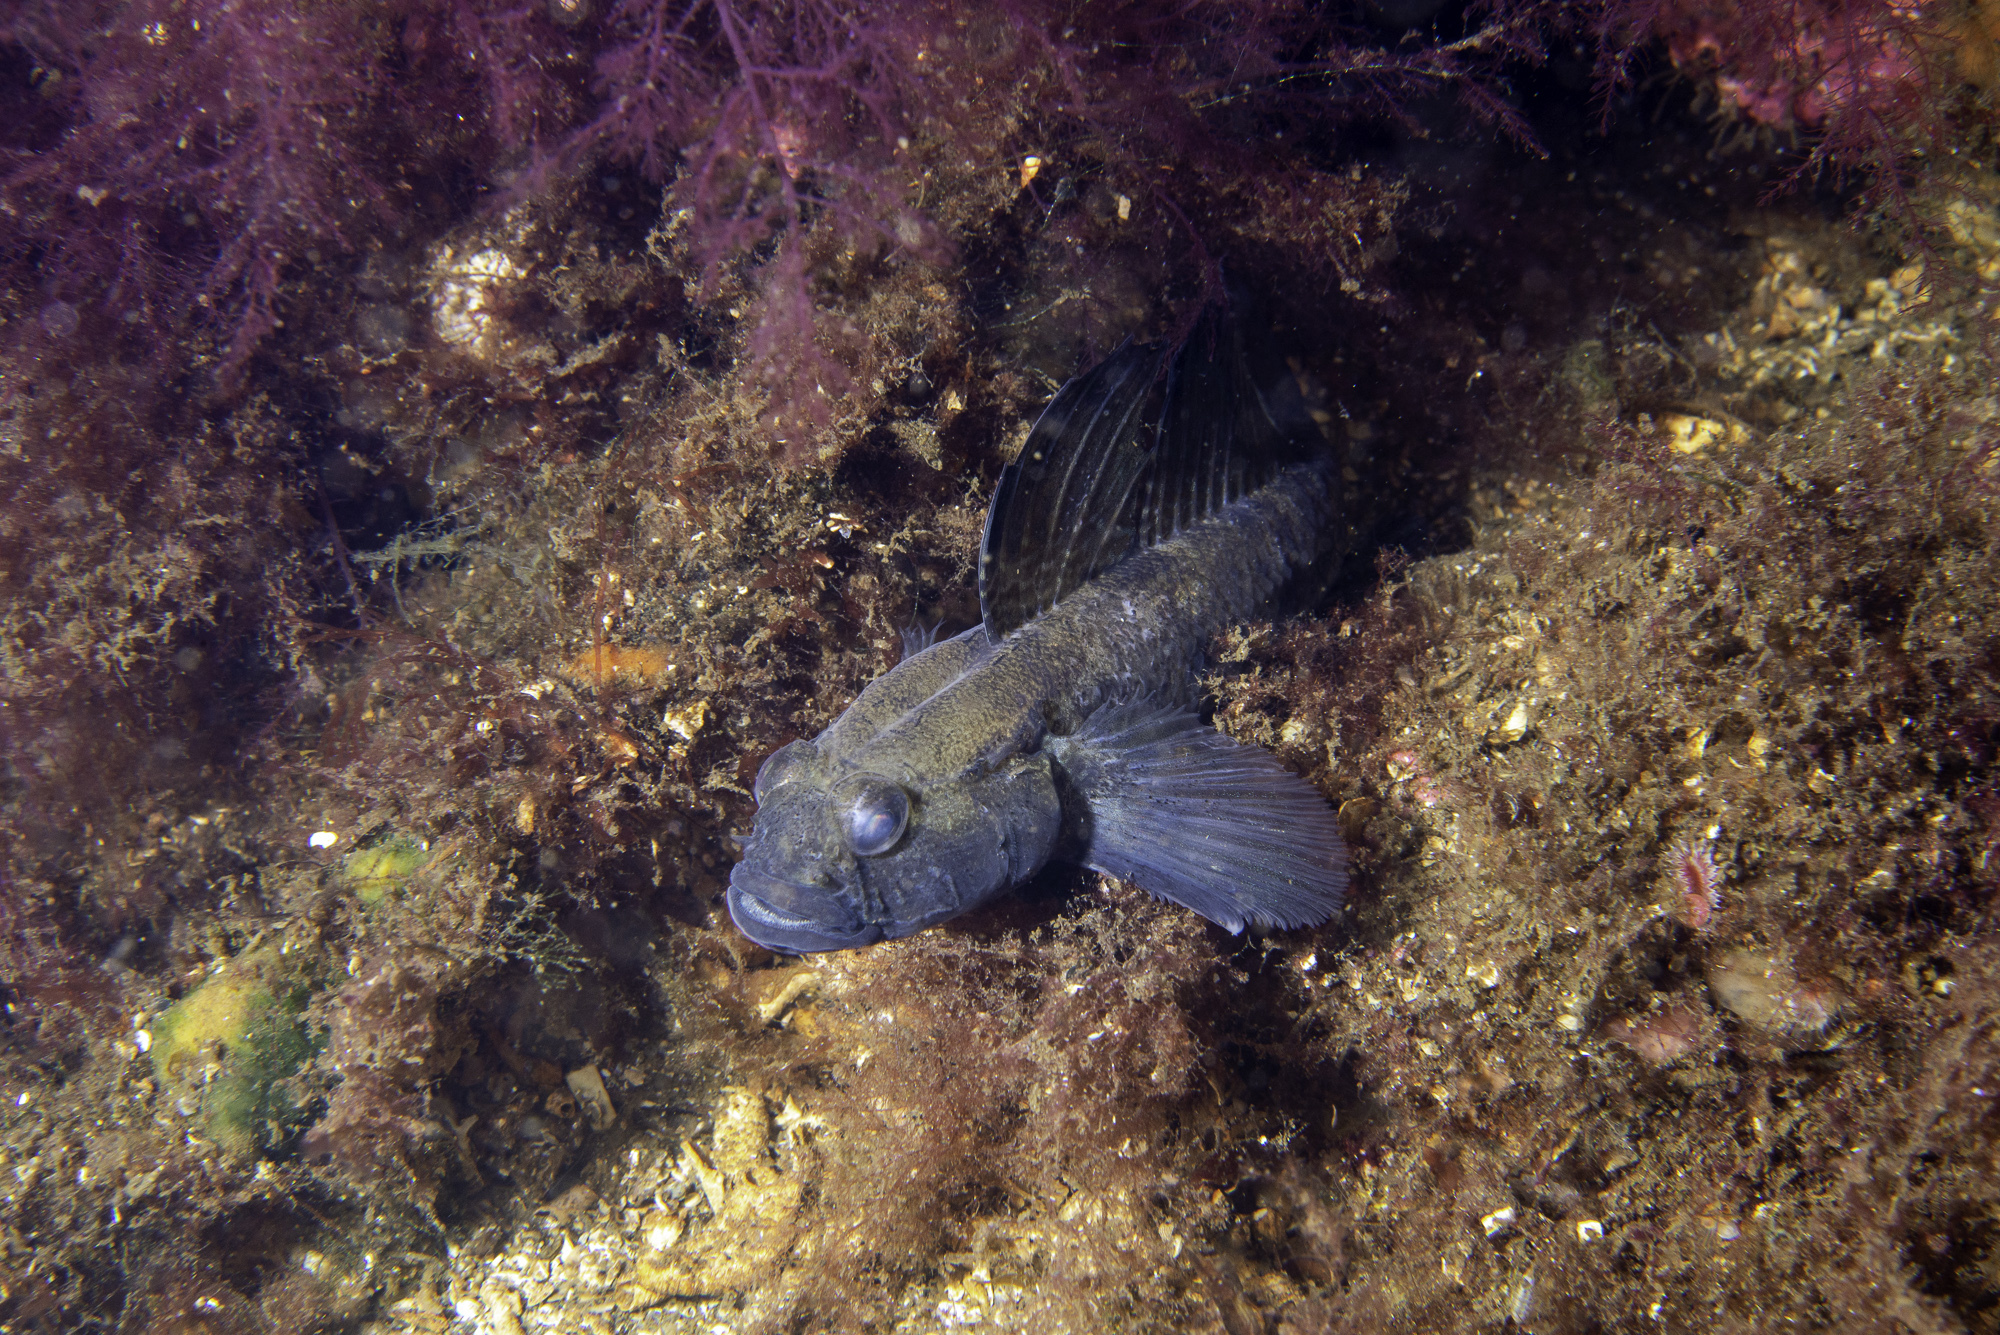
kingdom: Animalia
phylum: Chordata
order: Perciformes
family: Gobiidae
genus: Gobius
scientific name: Gobius niger
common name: Black goby
